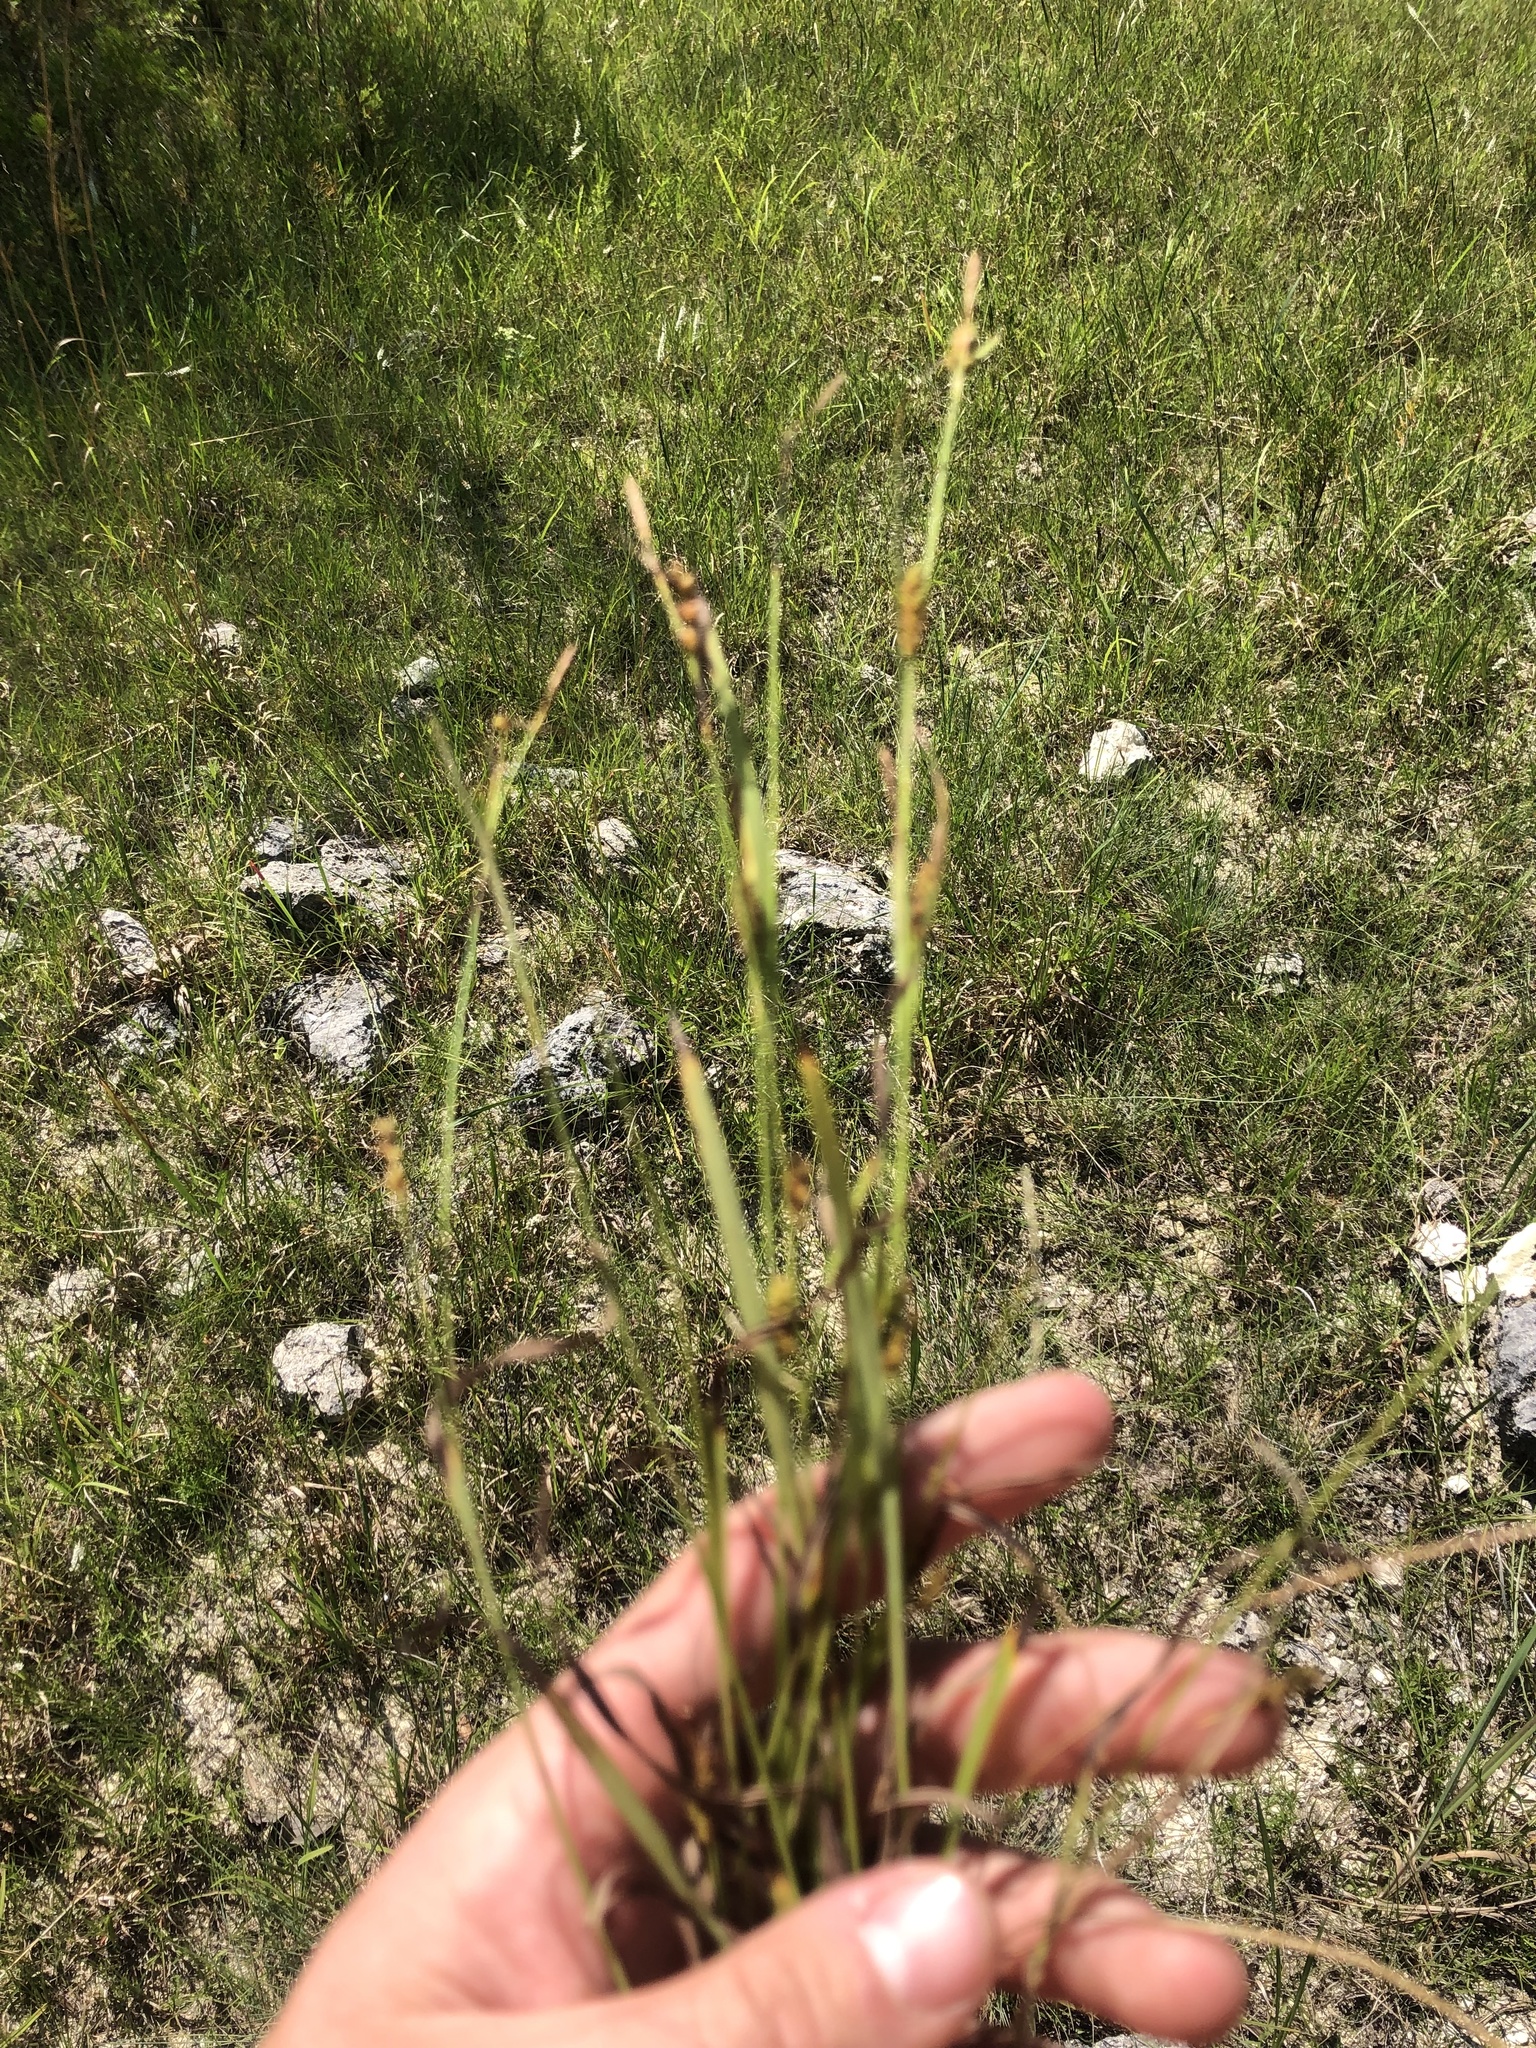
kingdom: Plantae
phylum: Tracheophyta
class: Liliopsida
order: Poales
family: Cyperaceae
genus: Carex
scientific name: Carex microdonta
